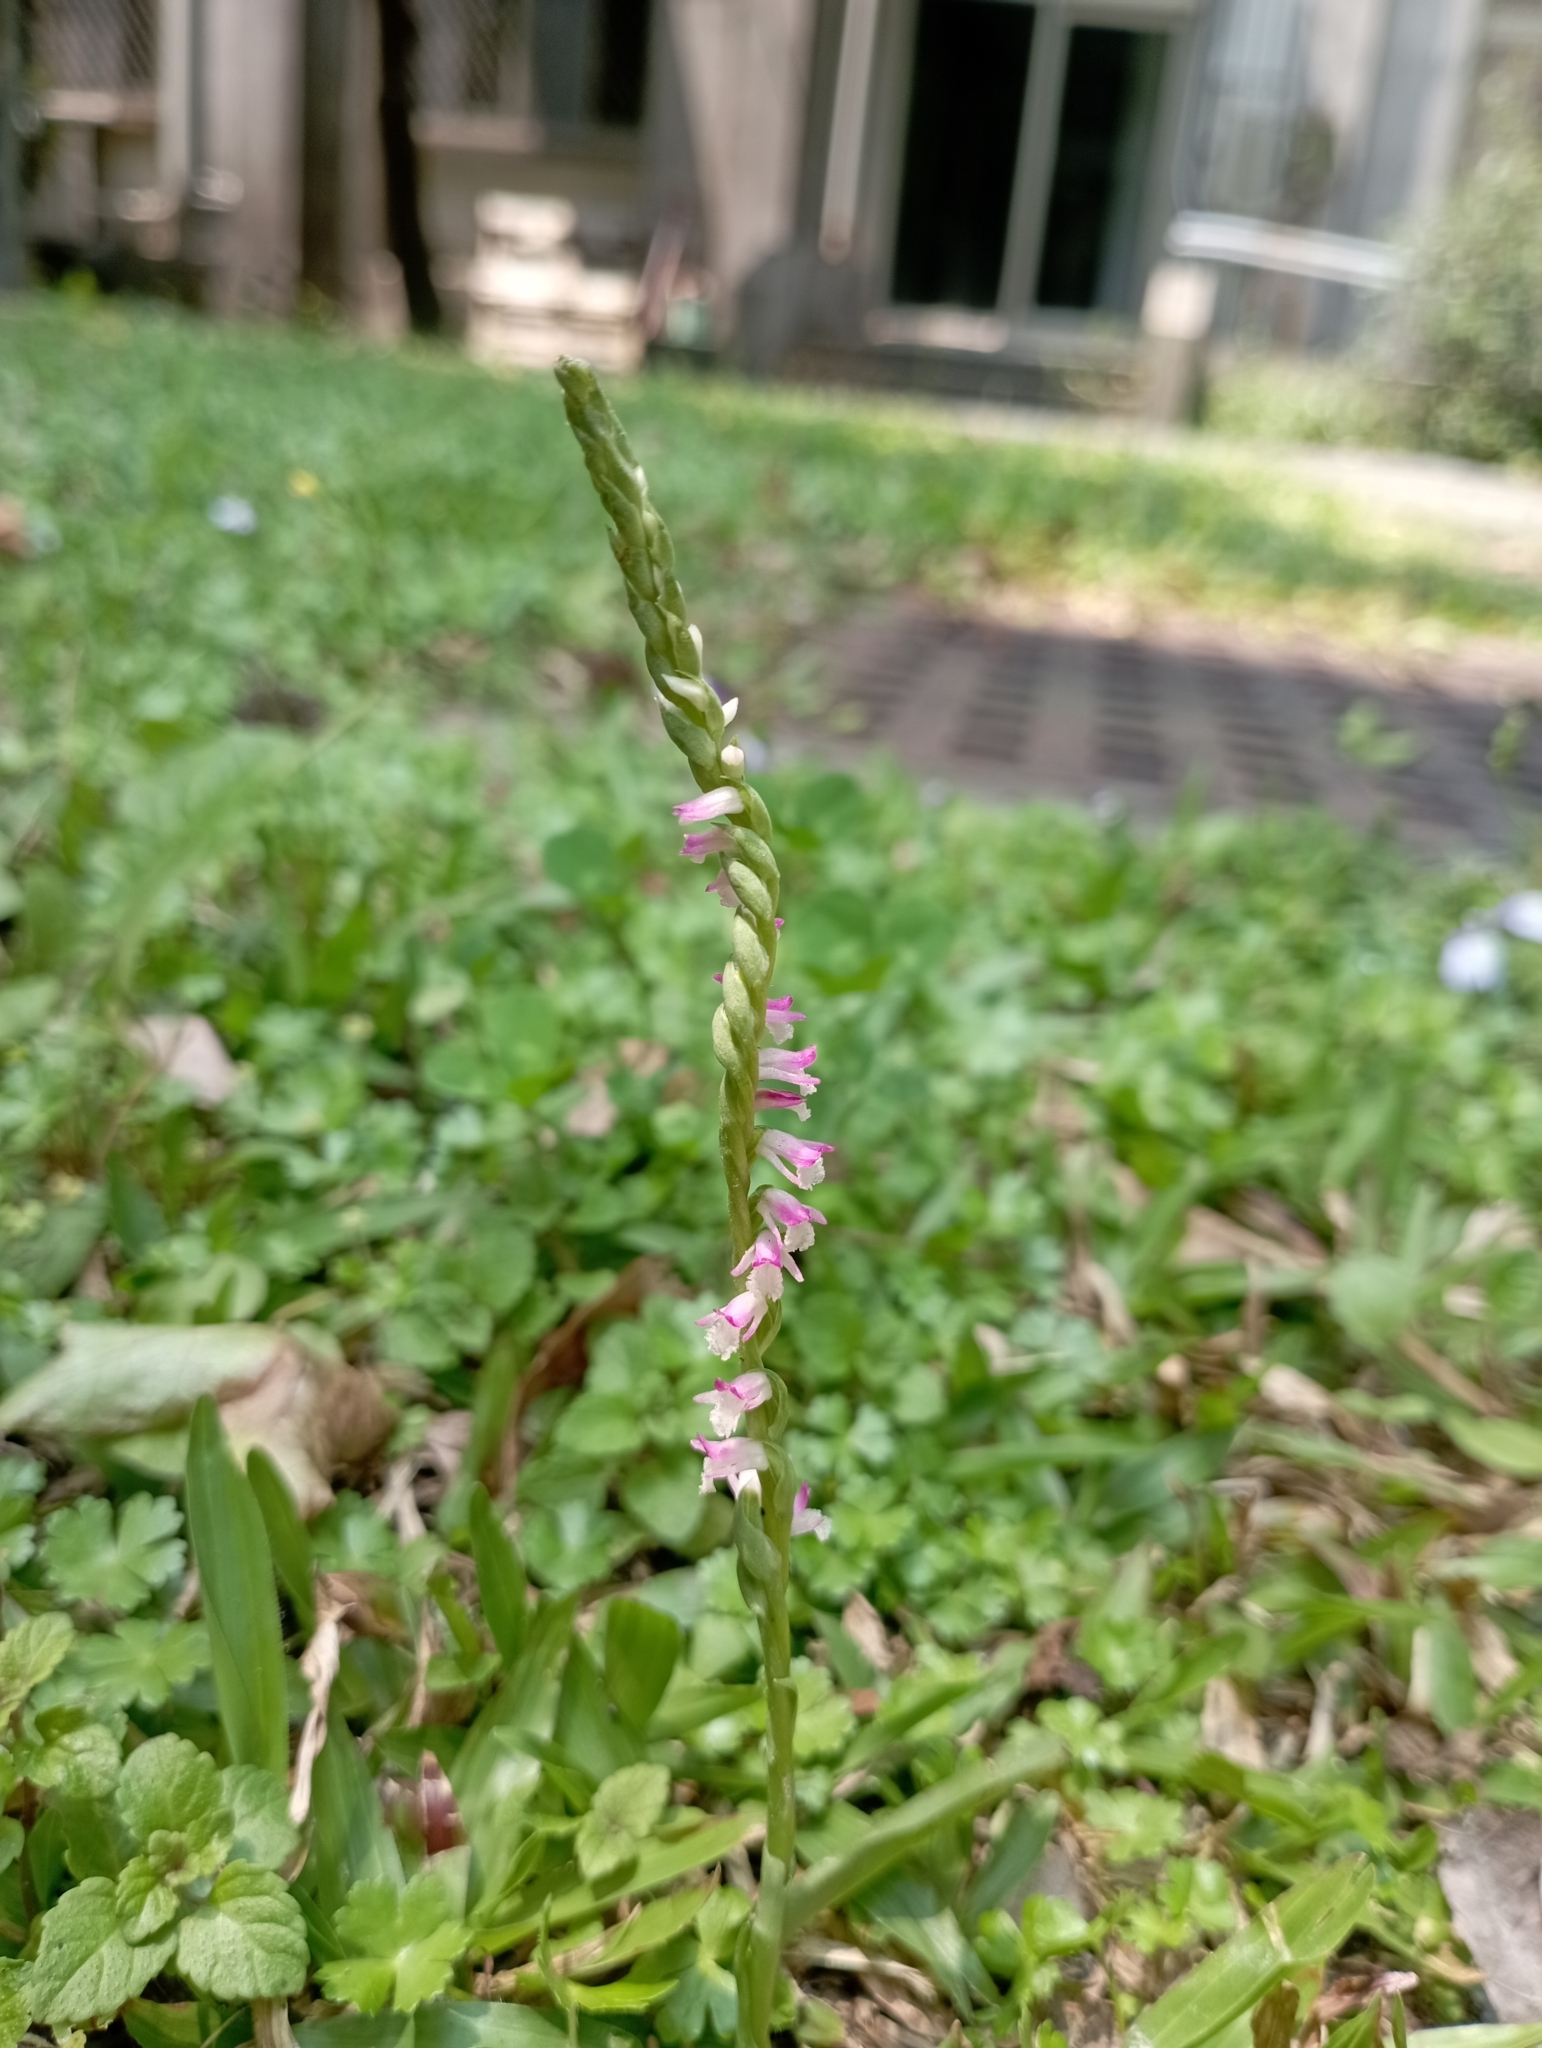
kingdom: Plantae
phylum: Tracheophyta
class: Liliopsida
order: Asparagales
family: Orchidaceae
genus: Spiranthes
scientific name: Spiranthes sinensis
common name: Chinese spiranthes
